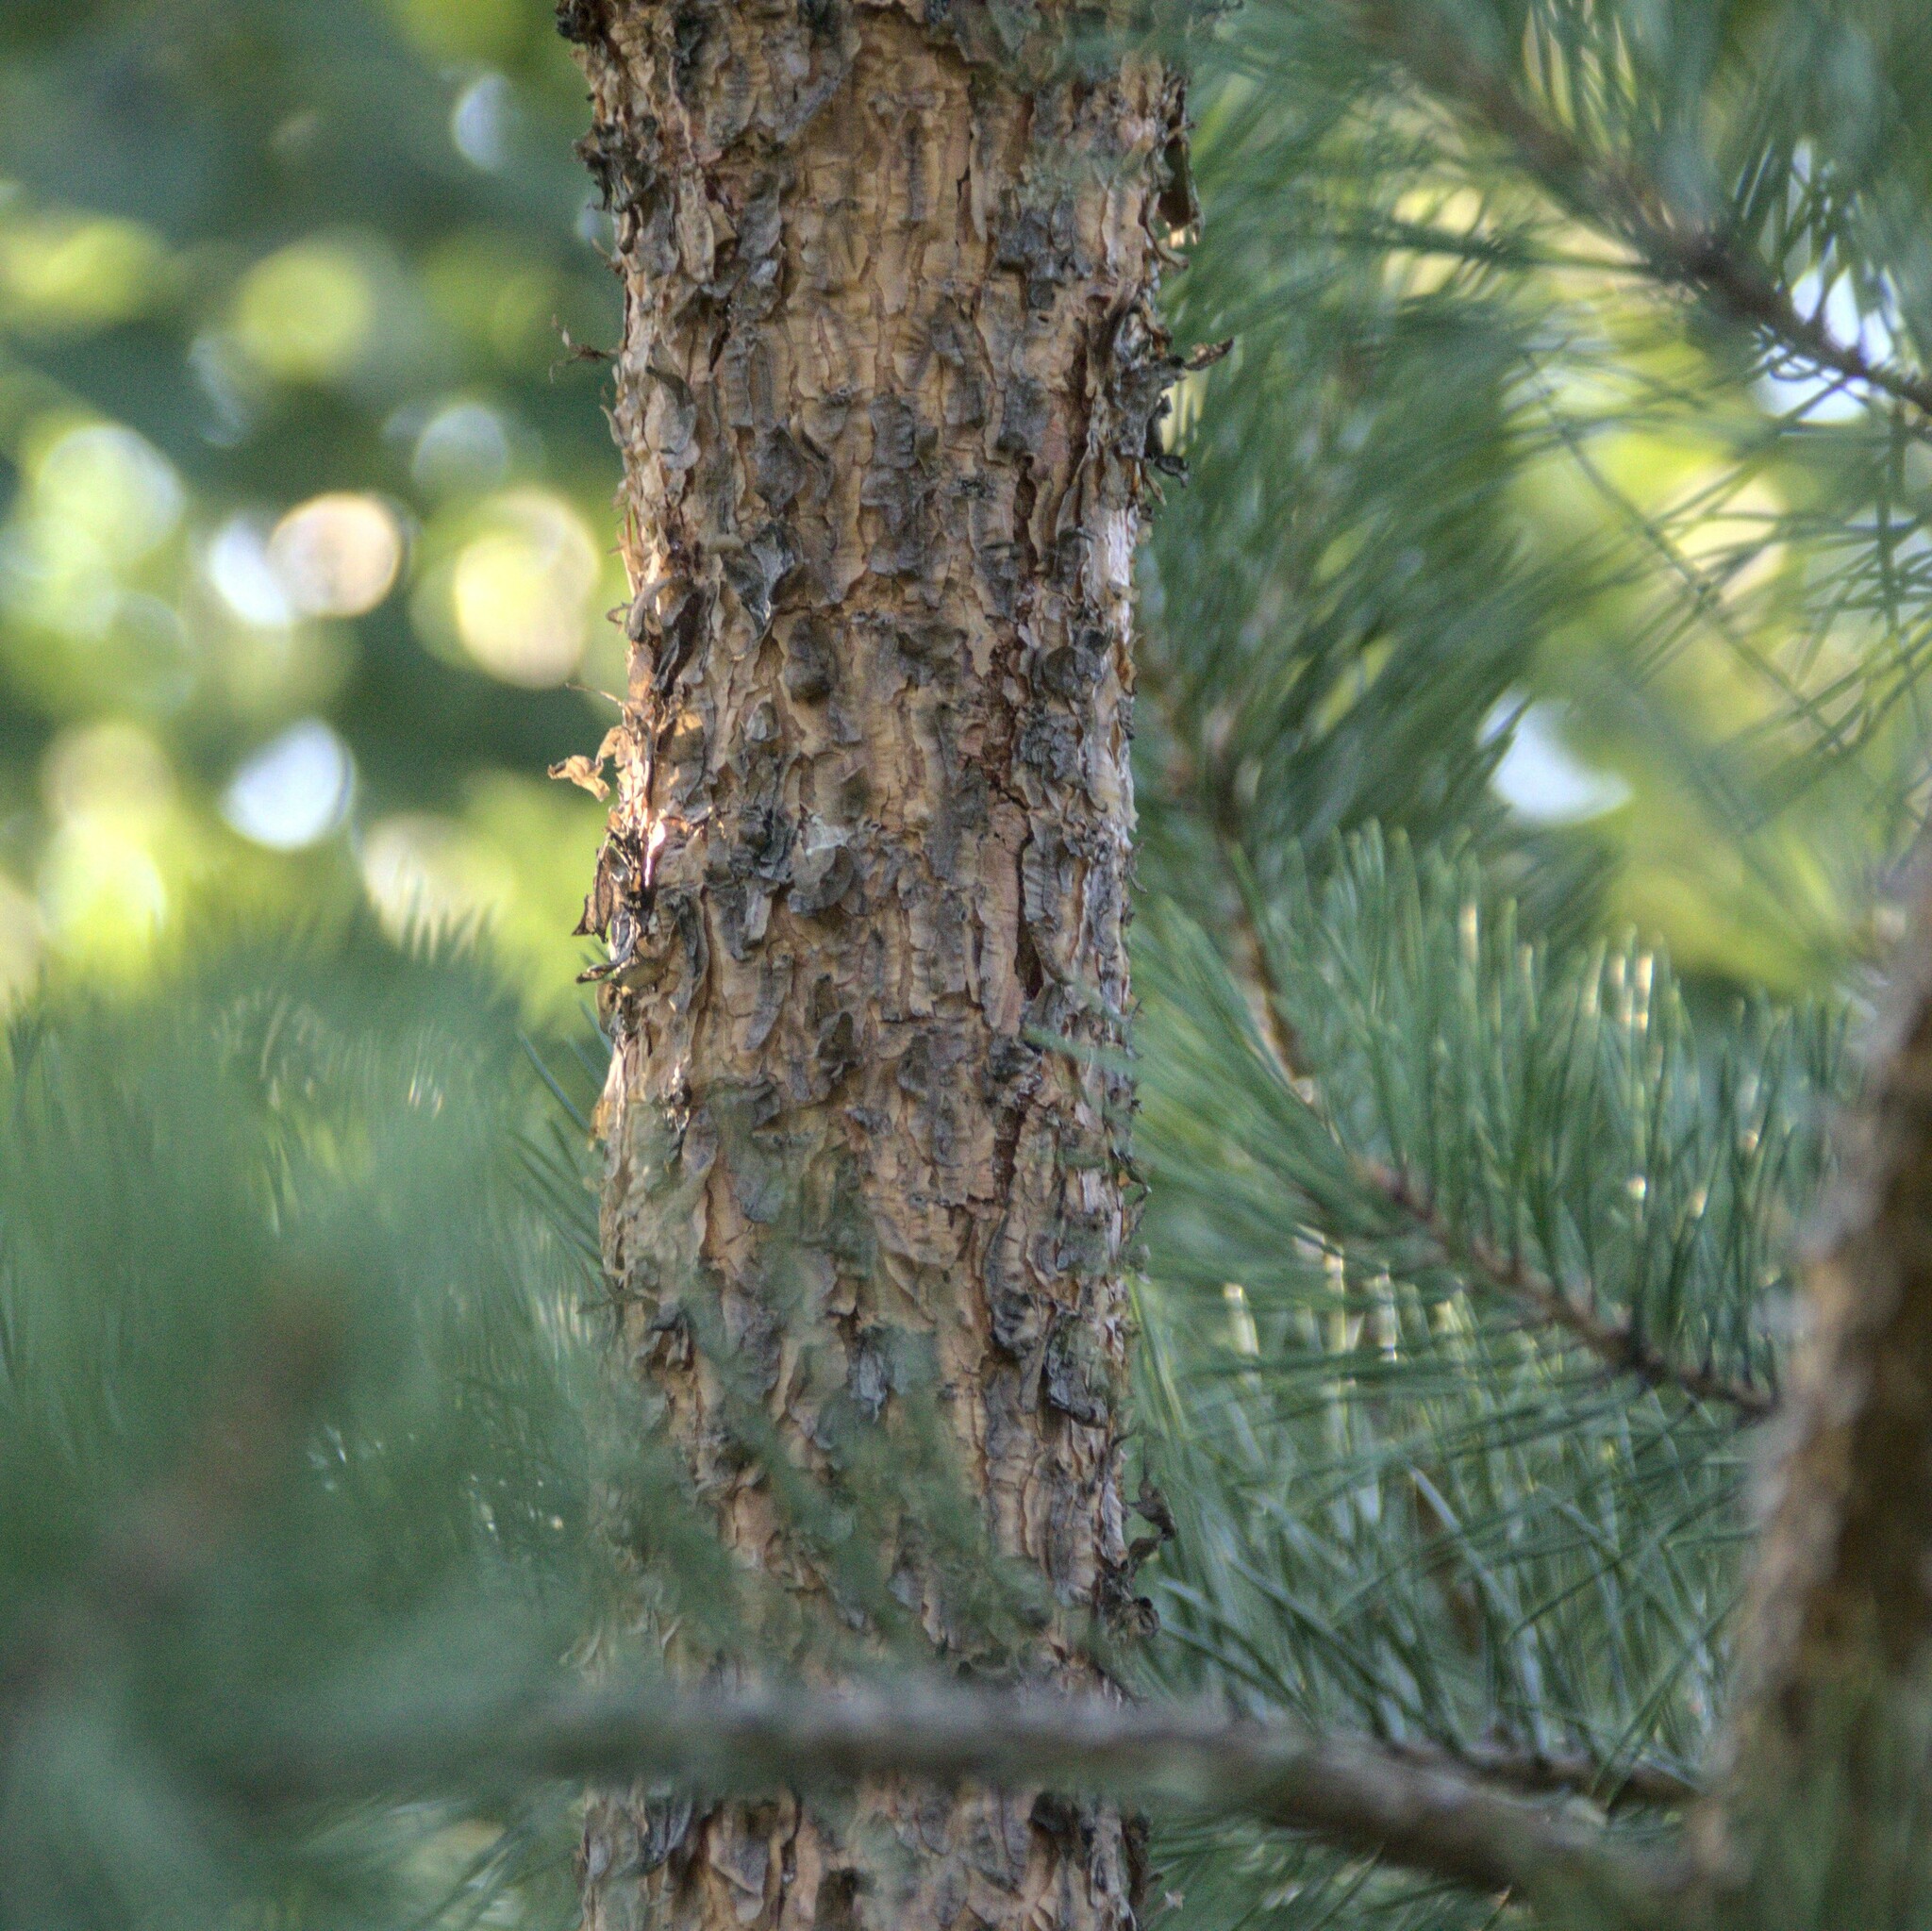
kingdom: Plantae
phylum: Tracheophyta
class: Pinopsida
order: Pinales
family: Pinaceae
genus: Pinus
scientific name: Pinus sylvestris
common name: Scots pine
